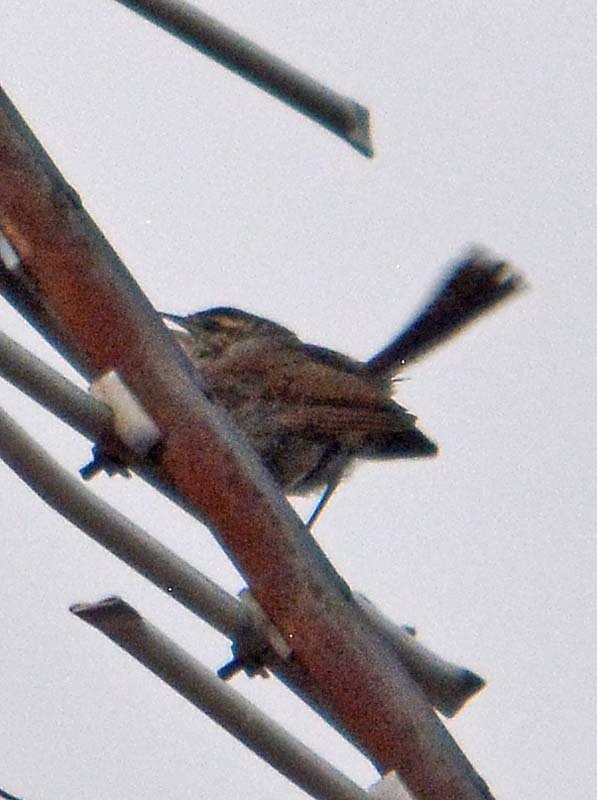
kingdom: Animalia
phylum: Chordata
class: Aves
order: Passeriformes
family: Troglodytidae
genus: Thryomanes
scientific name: Thryomanes bewickii
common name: Bewick's wren
